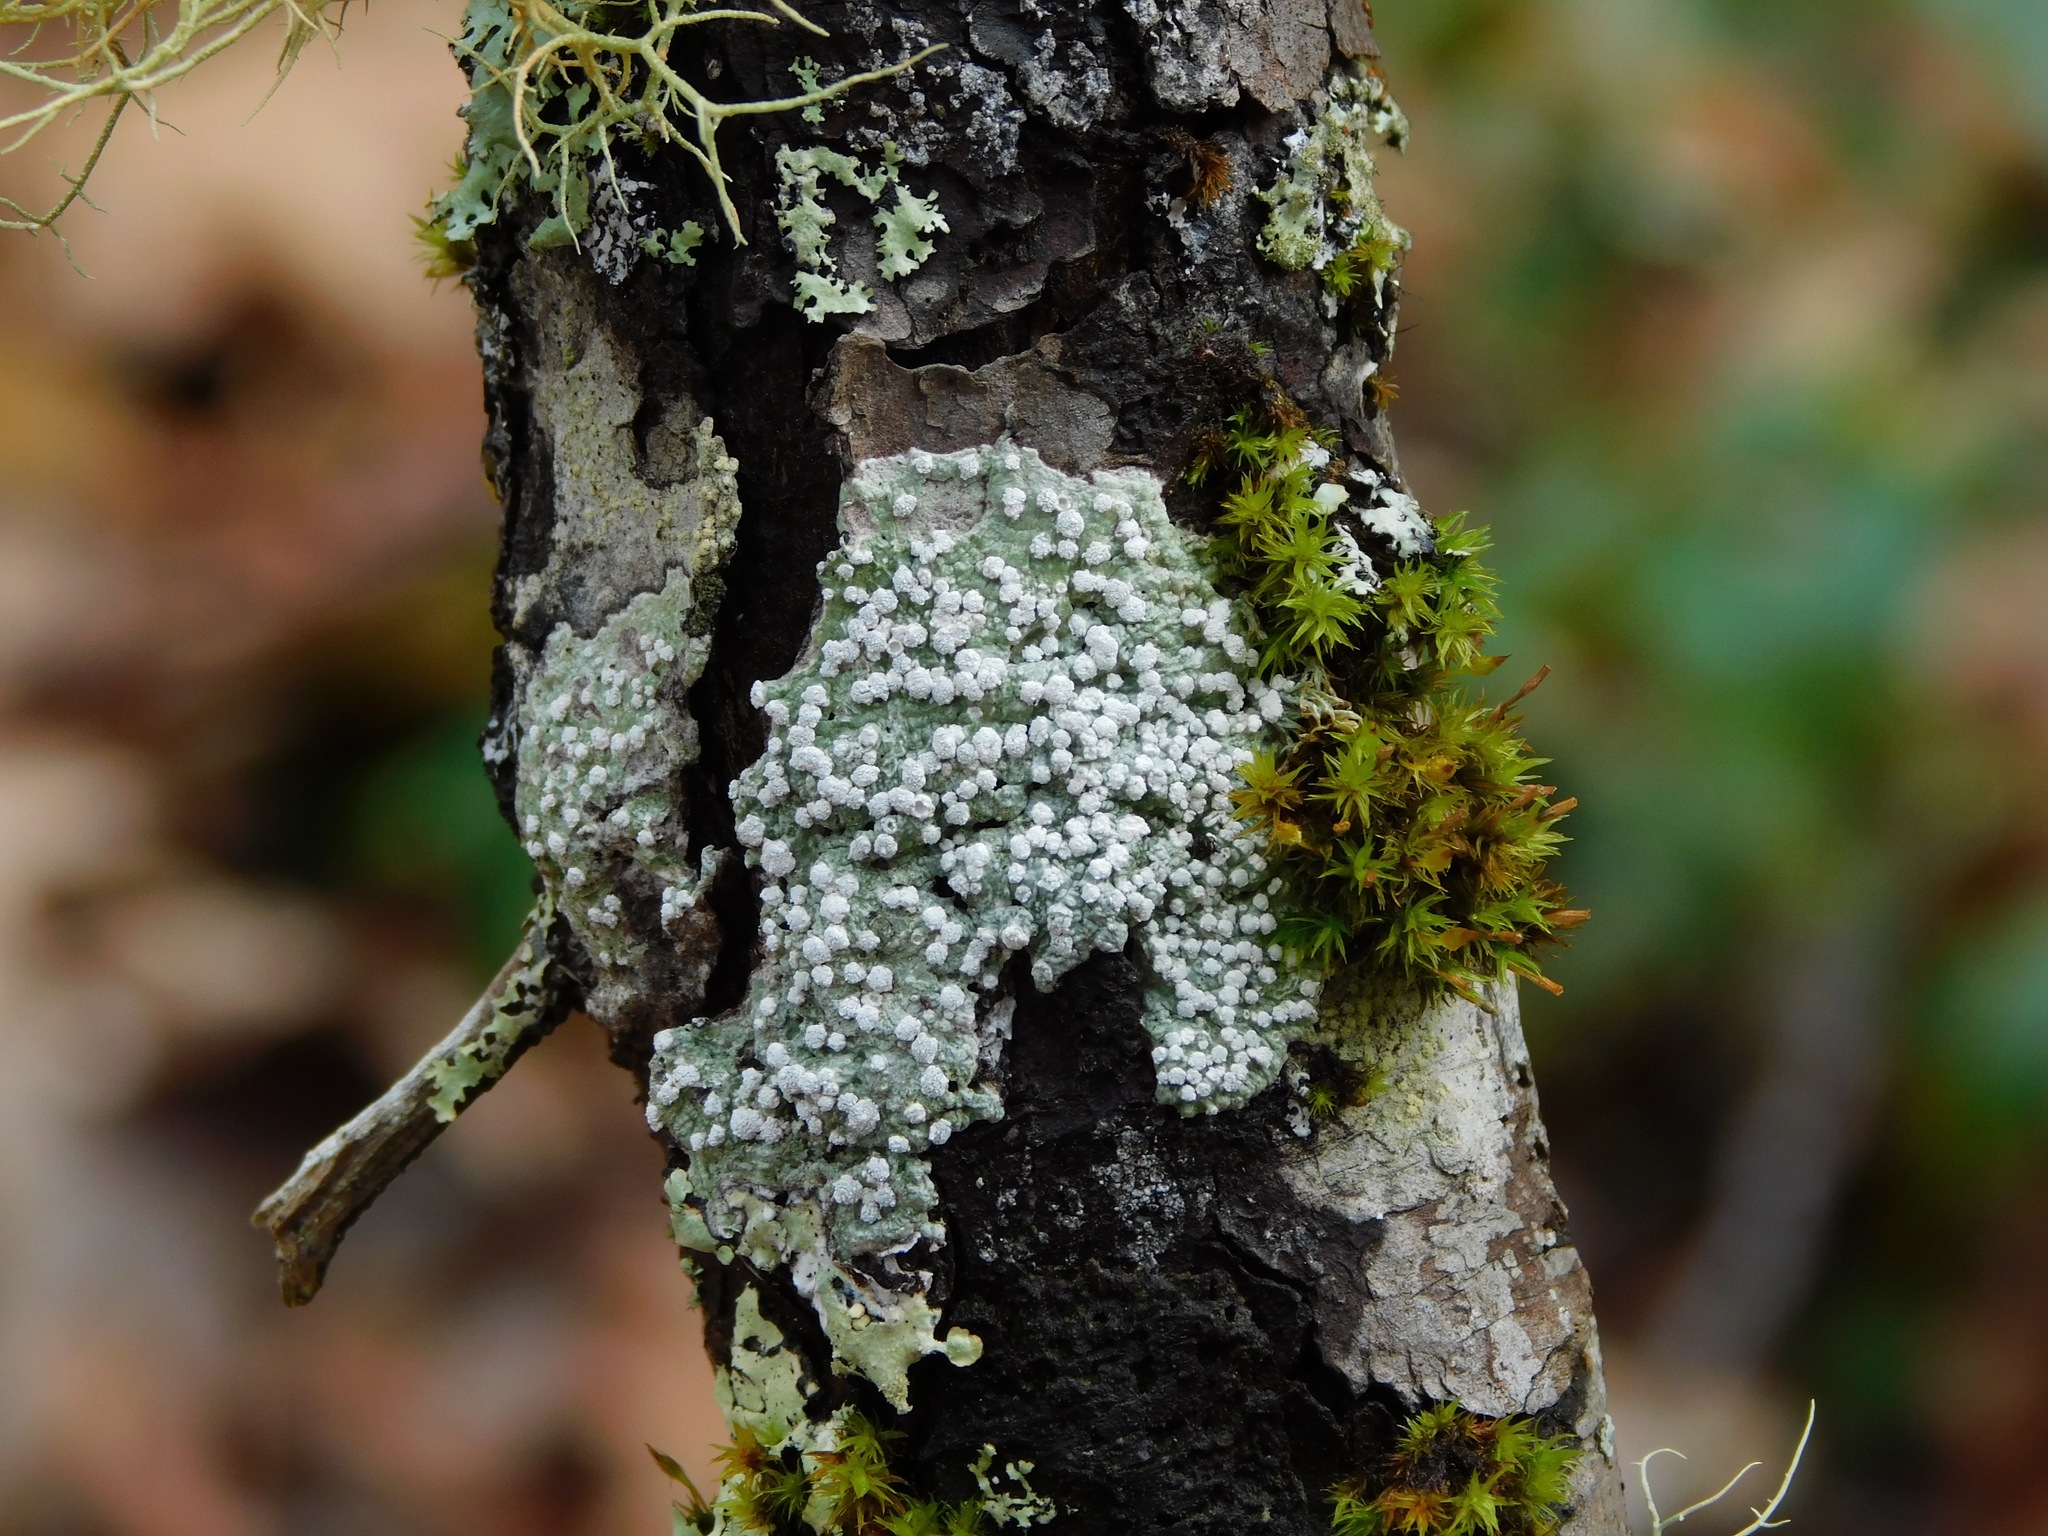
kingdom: Fungi
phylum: Ascomycota
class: Lecanoromycetes
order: Pertusariales
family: Pertusariaceae
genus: Lepra
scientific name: Lepra amara
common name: Bitter wart lichen
